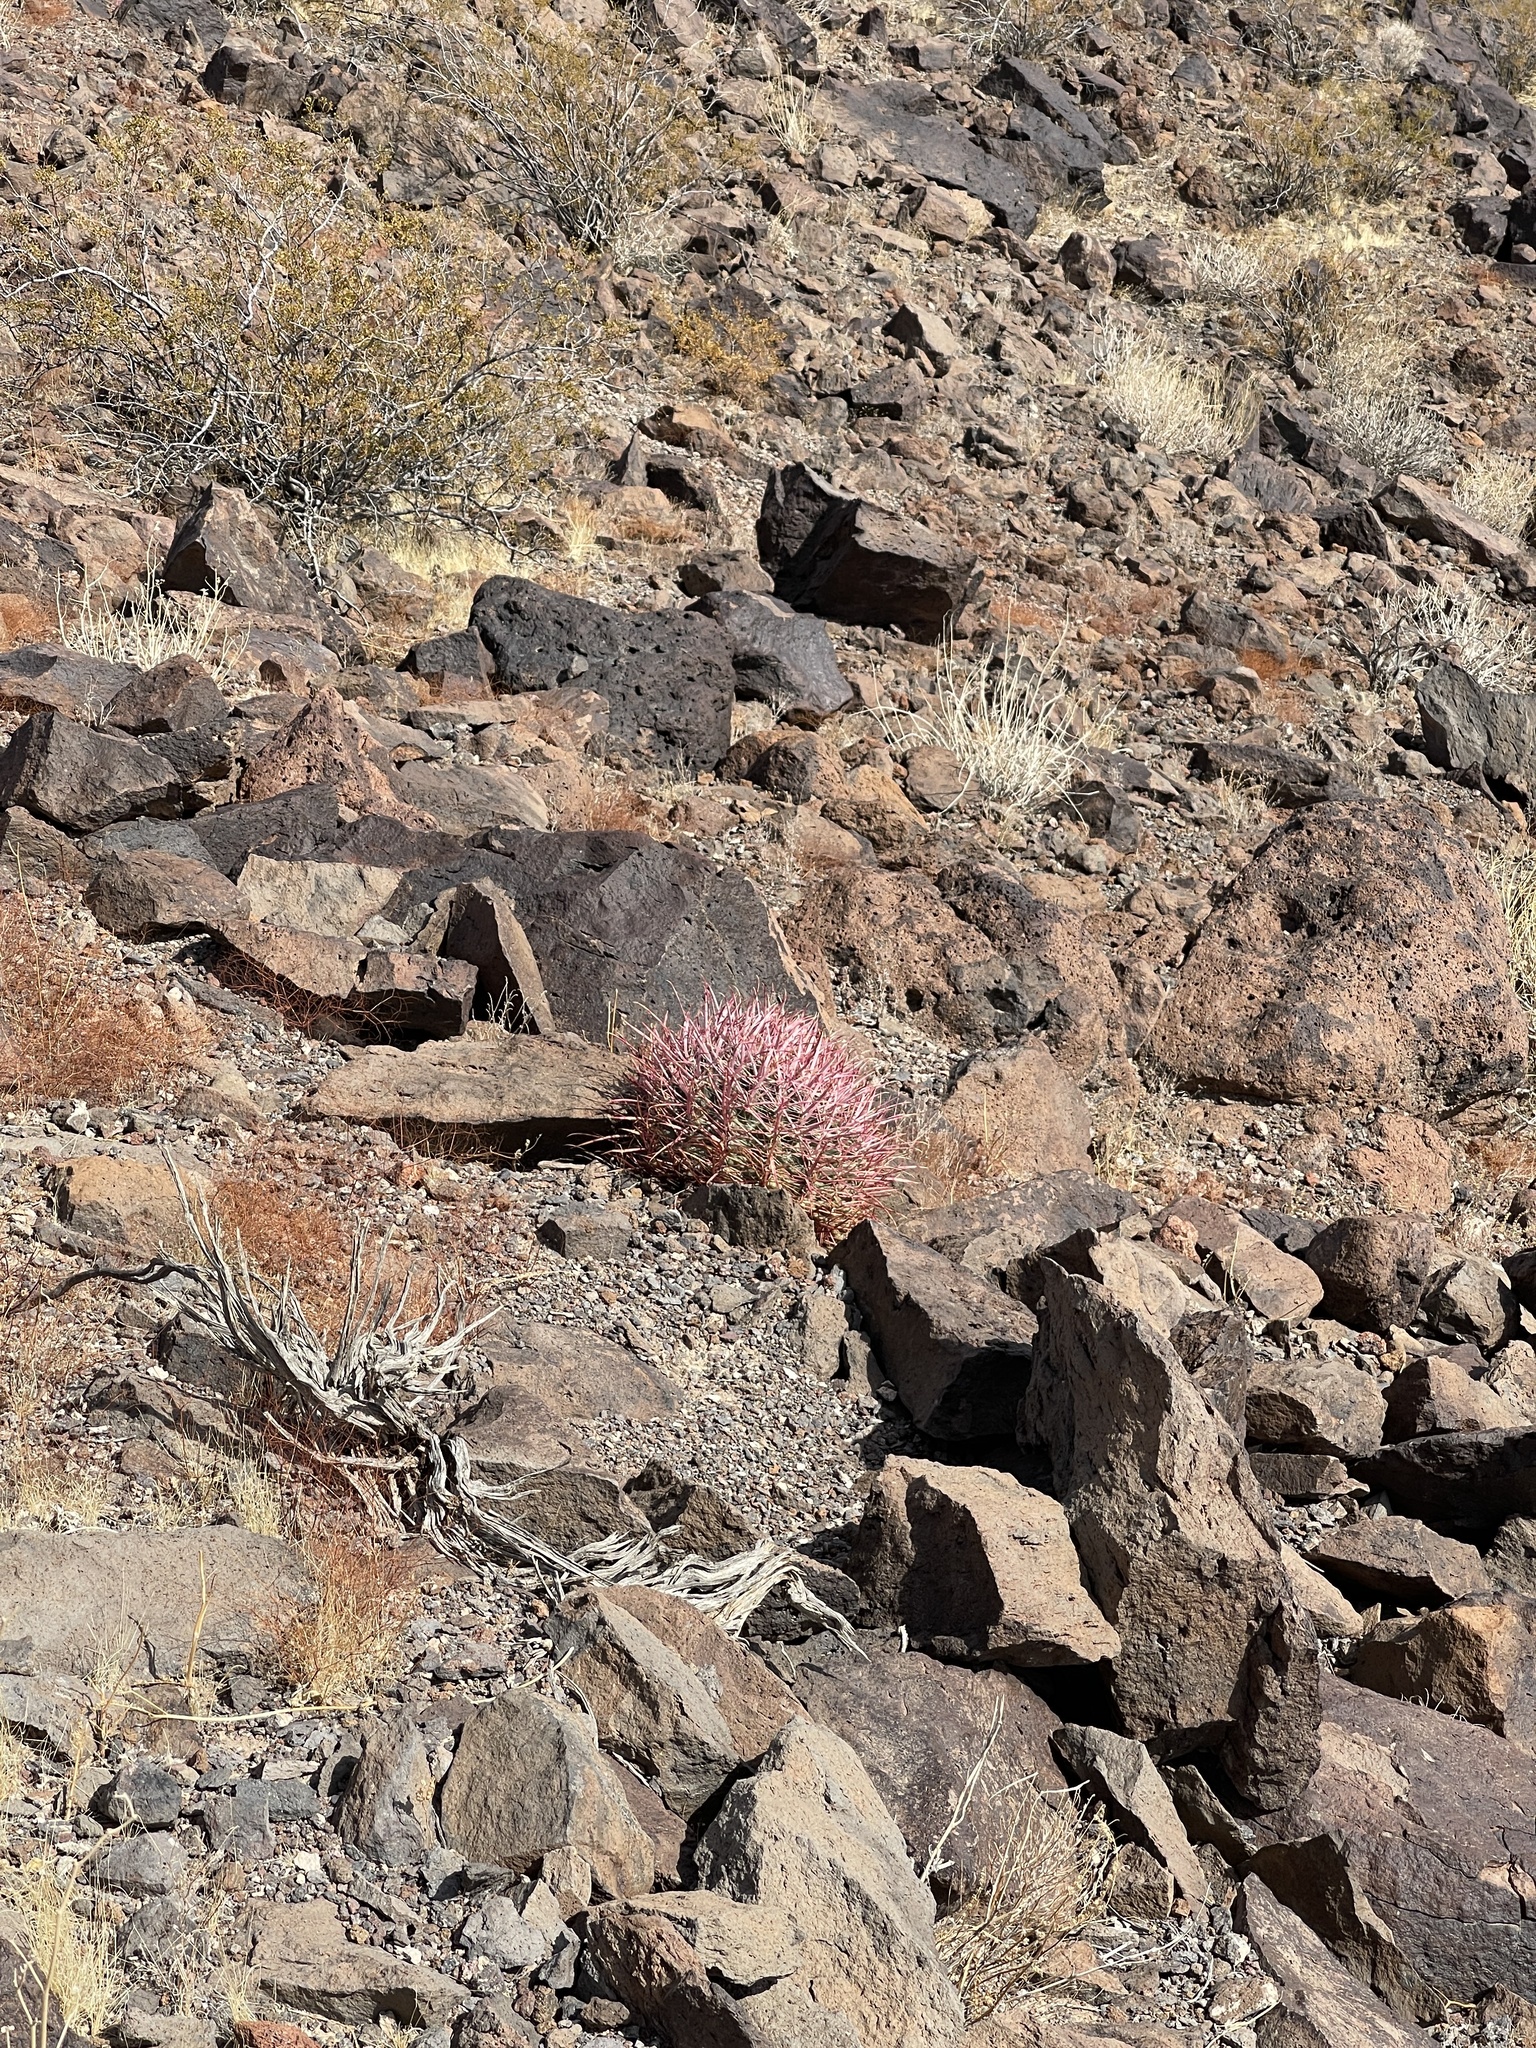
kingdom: Plantae
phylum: Tracheophyta
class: Magnoliopsida
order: Caryophyllales
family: Cactaceae
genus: Ferocactus
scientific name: Ferocactus cylindraceus
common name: California barrel cactus
